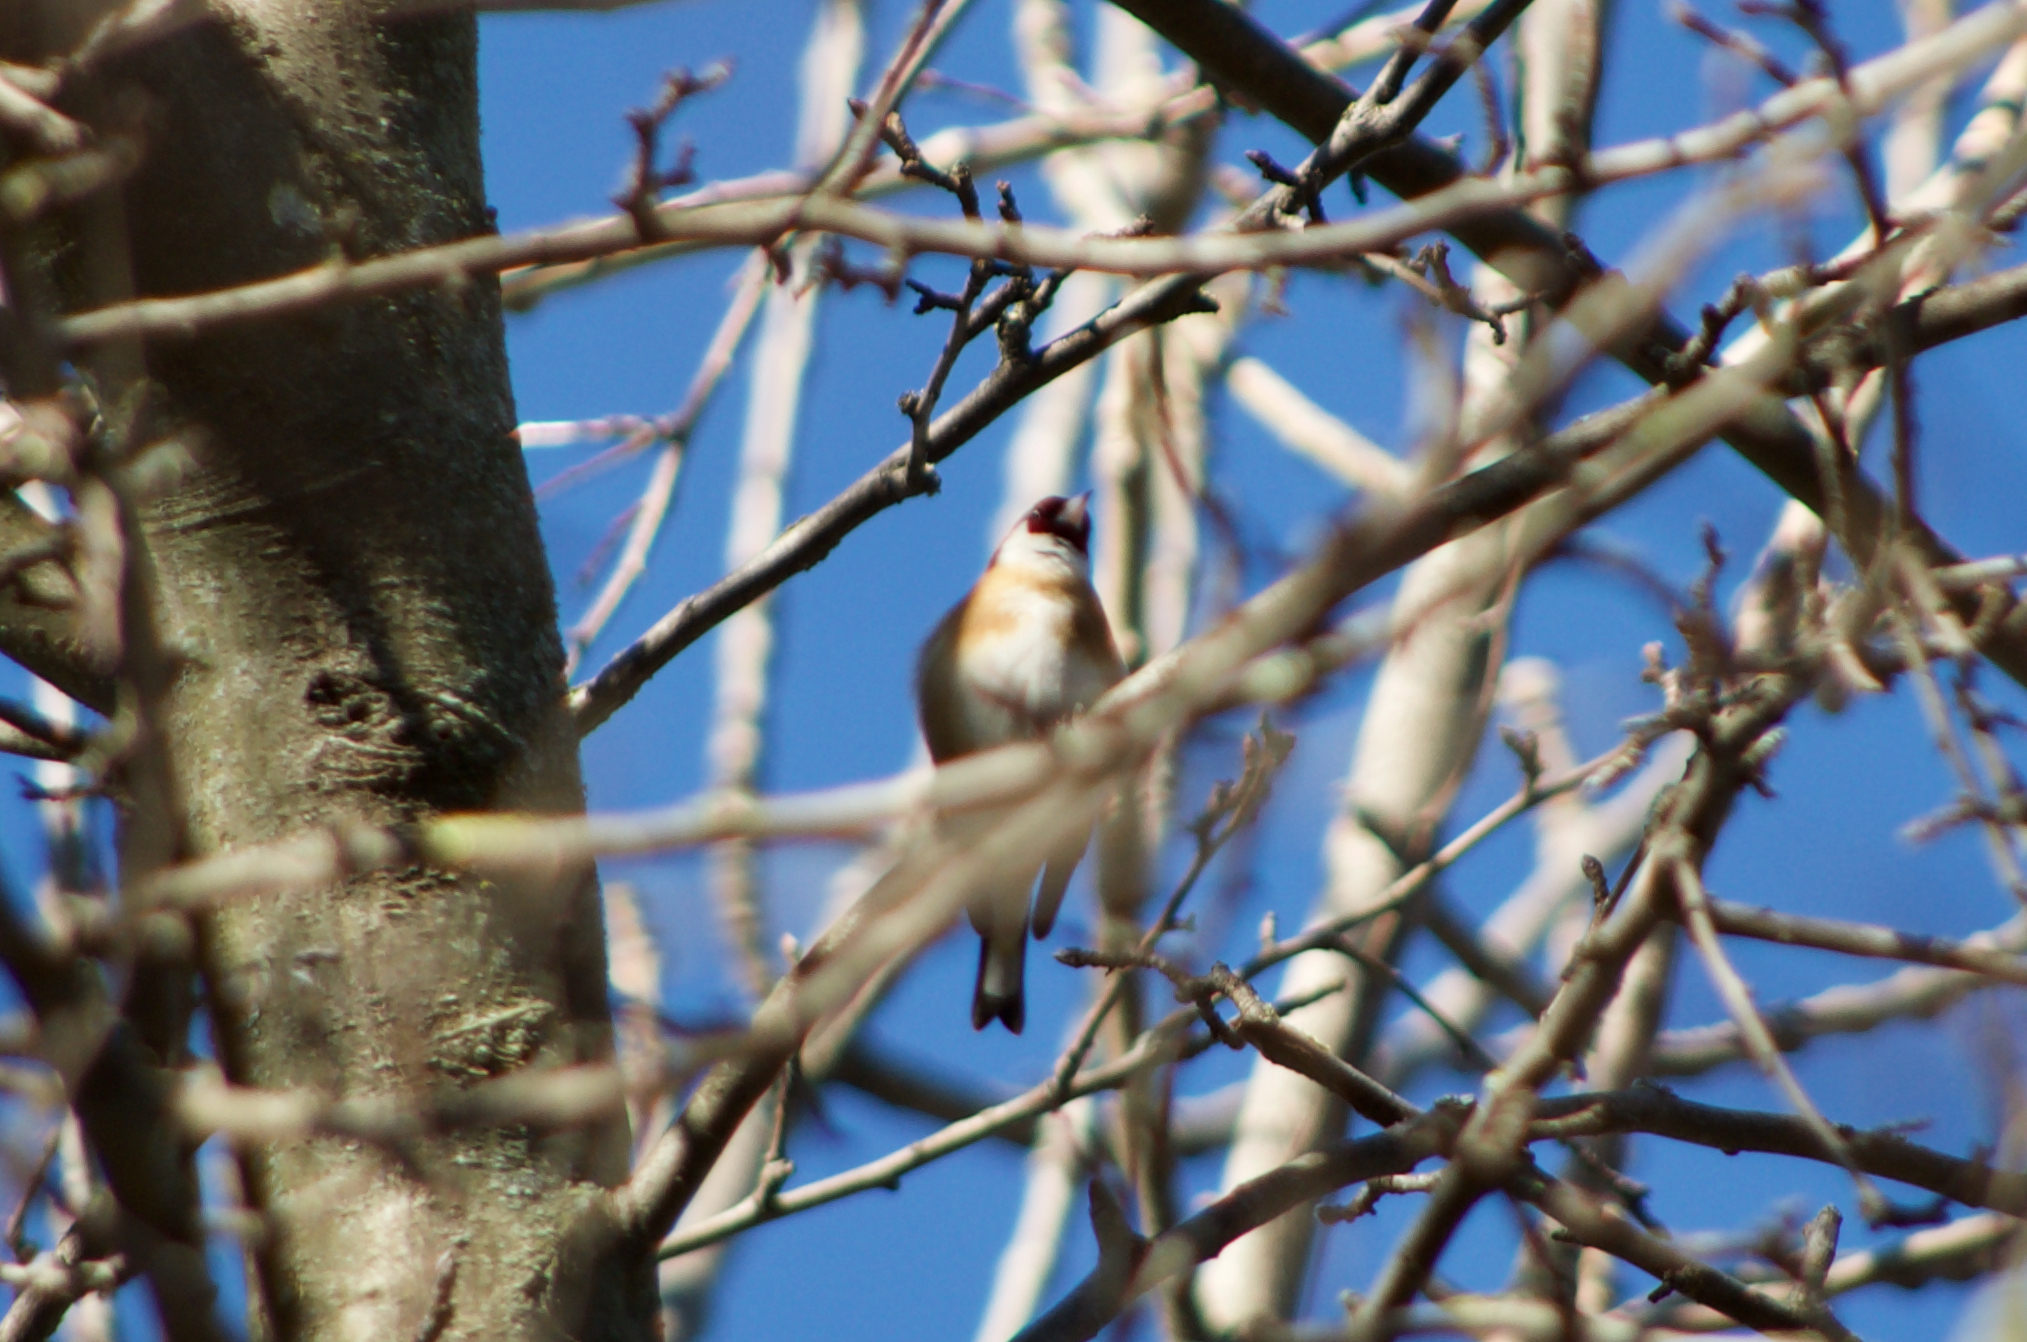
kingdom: Animalia
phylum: Chordata
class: Aves
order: Passeriformes
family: Fringillidae
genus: Carduelis
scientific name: Carduelis carduelis
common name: European goldfinch
